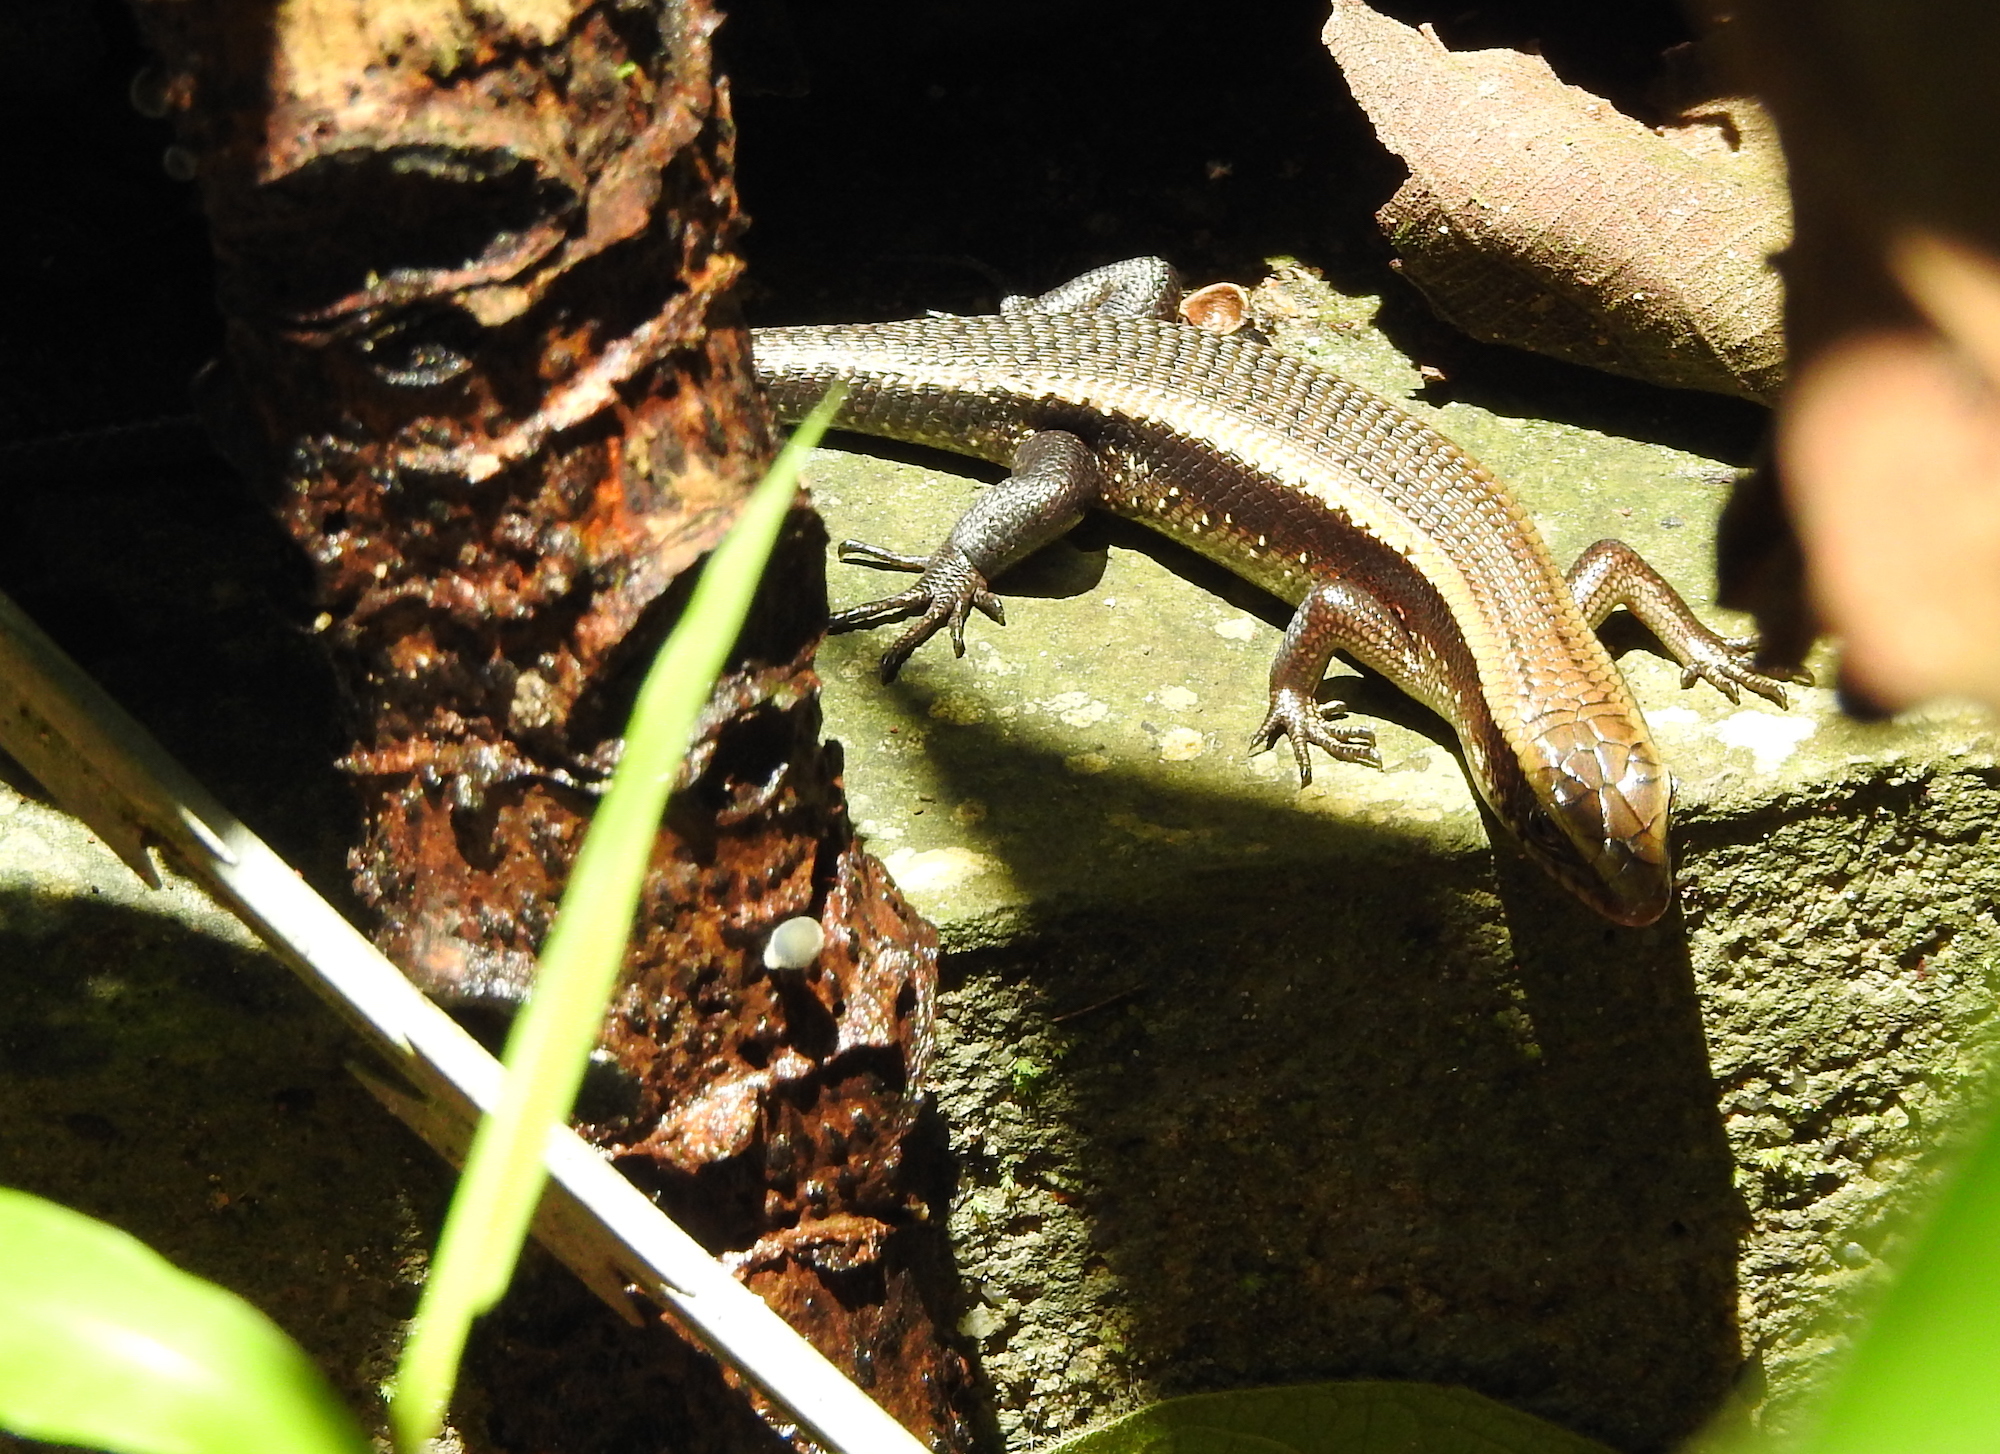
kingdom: Animalia
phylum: Chordata
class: Squamata
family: Scincidae
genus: Eutropis
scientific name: Eutropis multifasciata
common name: Common mabuya
